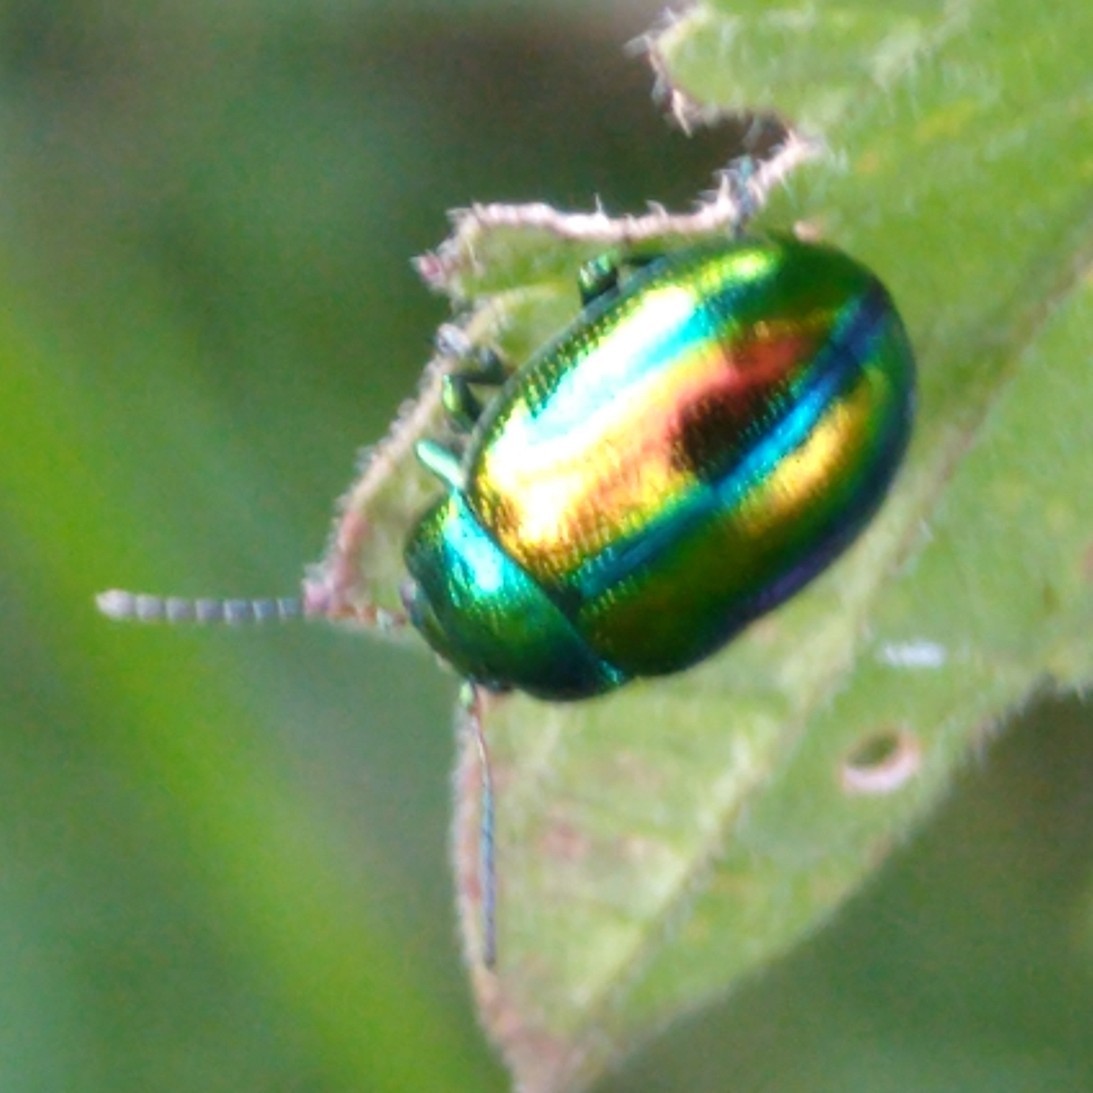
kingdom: Animalia
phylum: Arthropoda
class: Insecta
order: Coleoptera
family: Chrysomelidae
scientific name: Chrysomelidae
